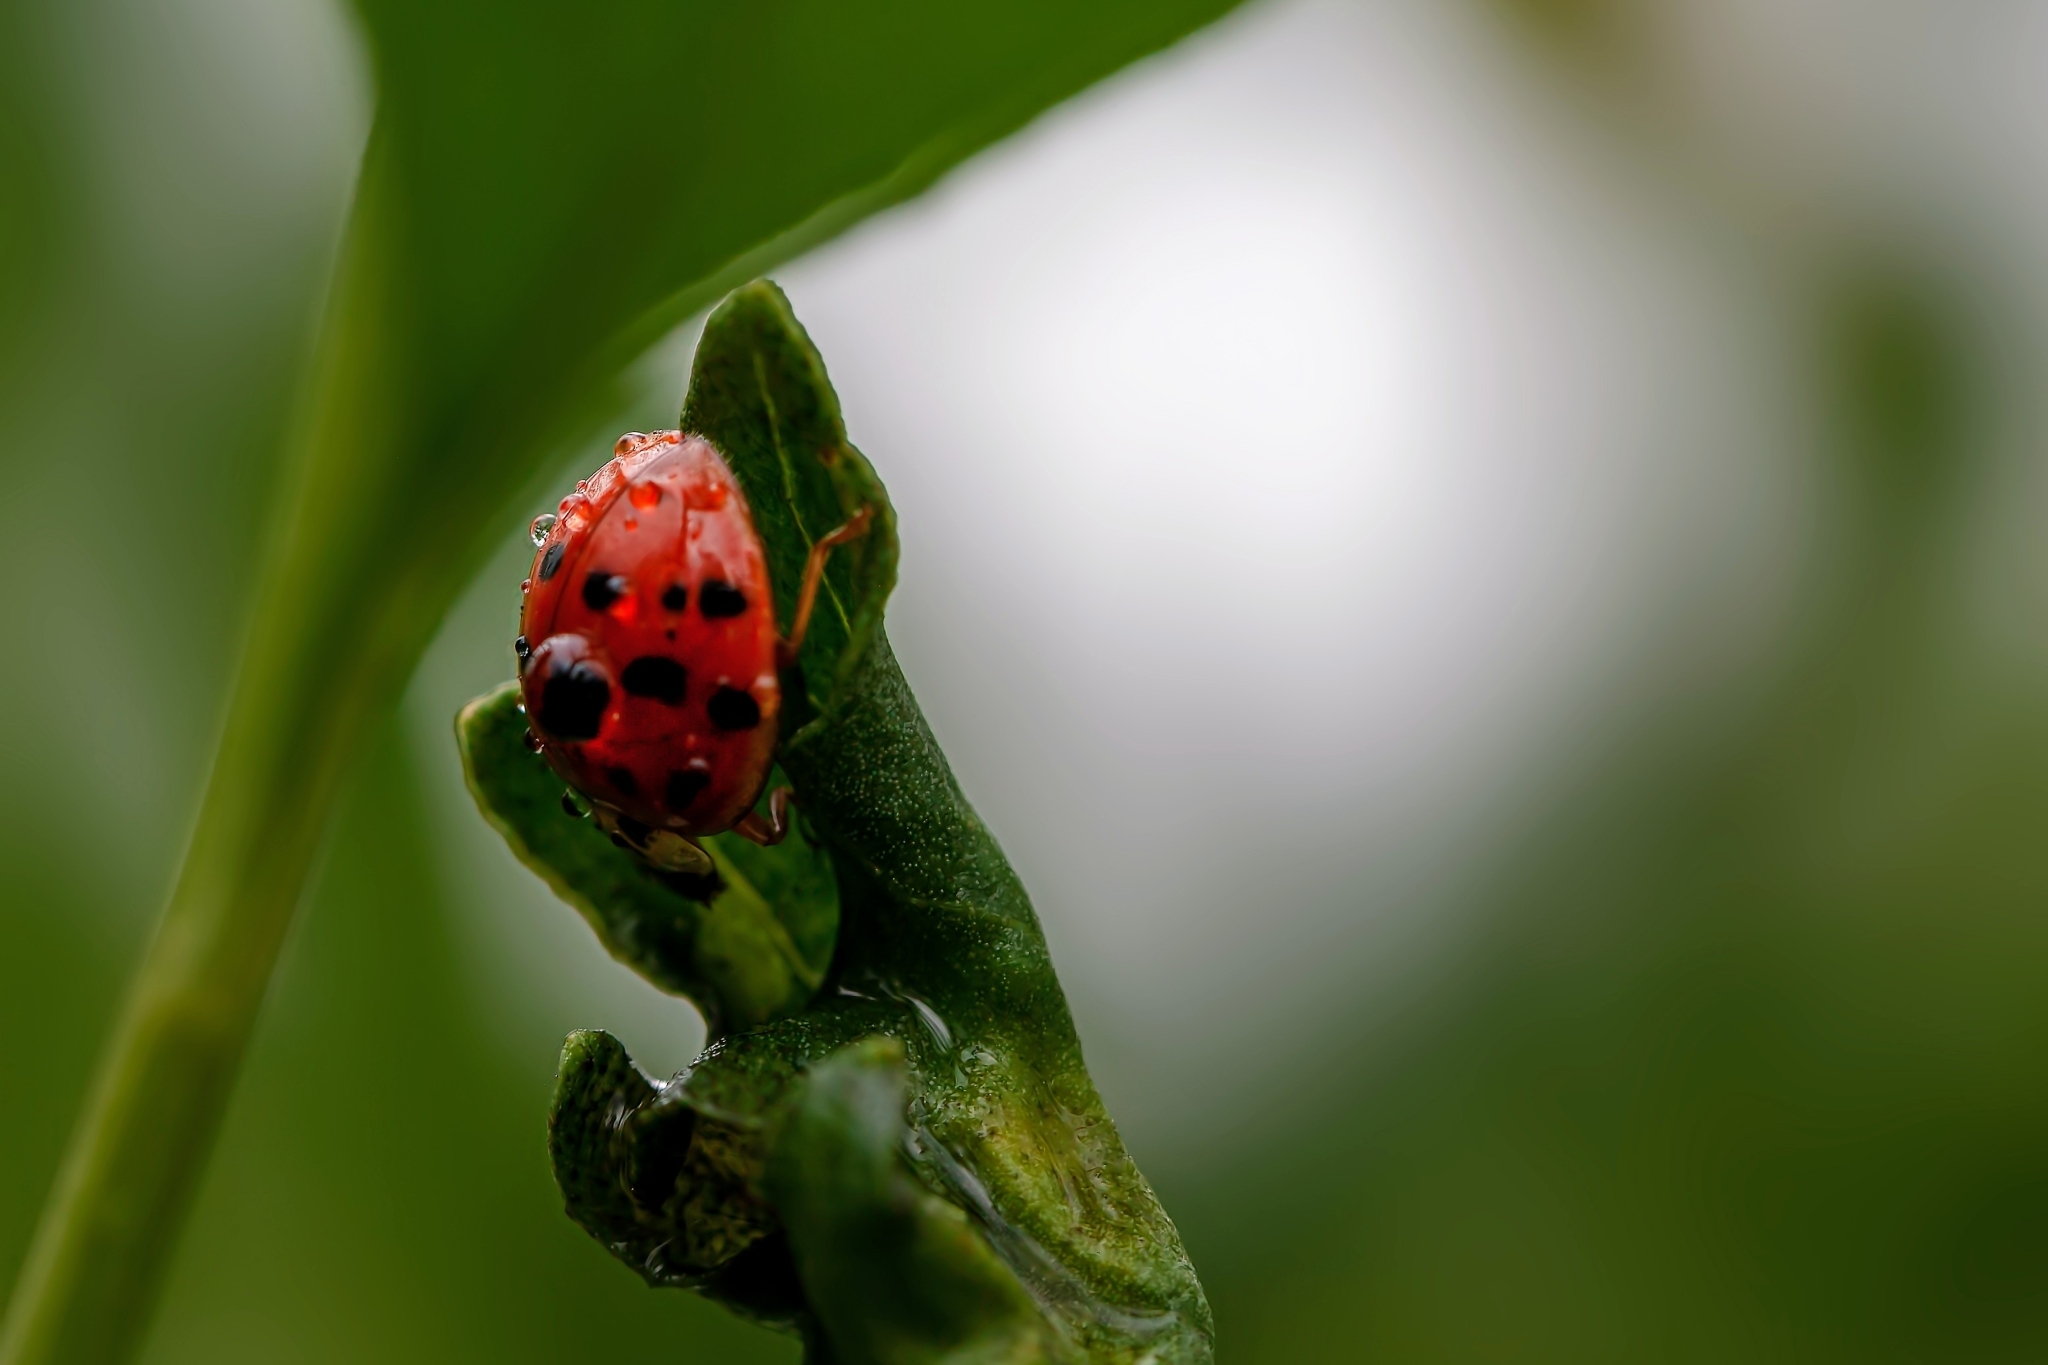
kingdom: Animalia
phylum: Arthropoda
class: Insecta
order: Coleoptera
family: Coccinellidae
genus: Harmonia
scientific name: Harmonia axyridis
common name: Harlequin ladybird
